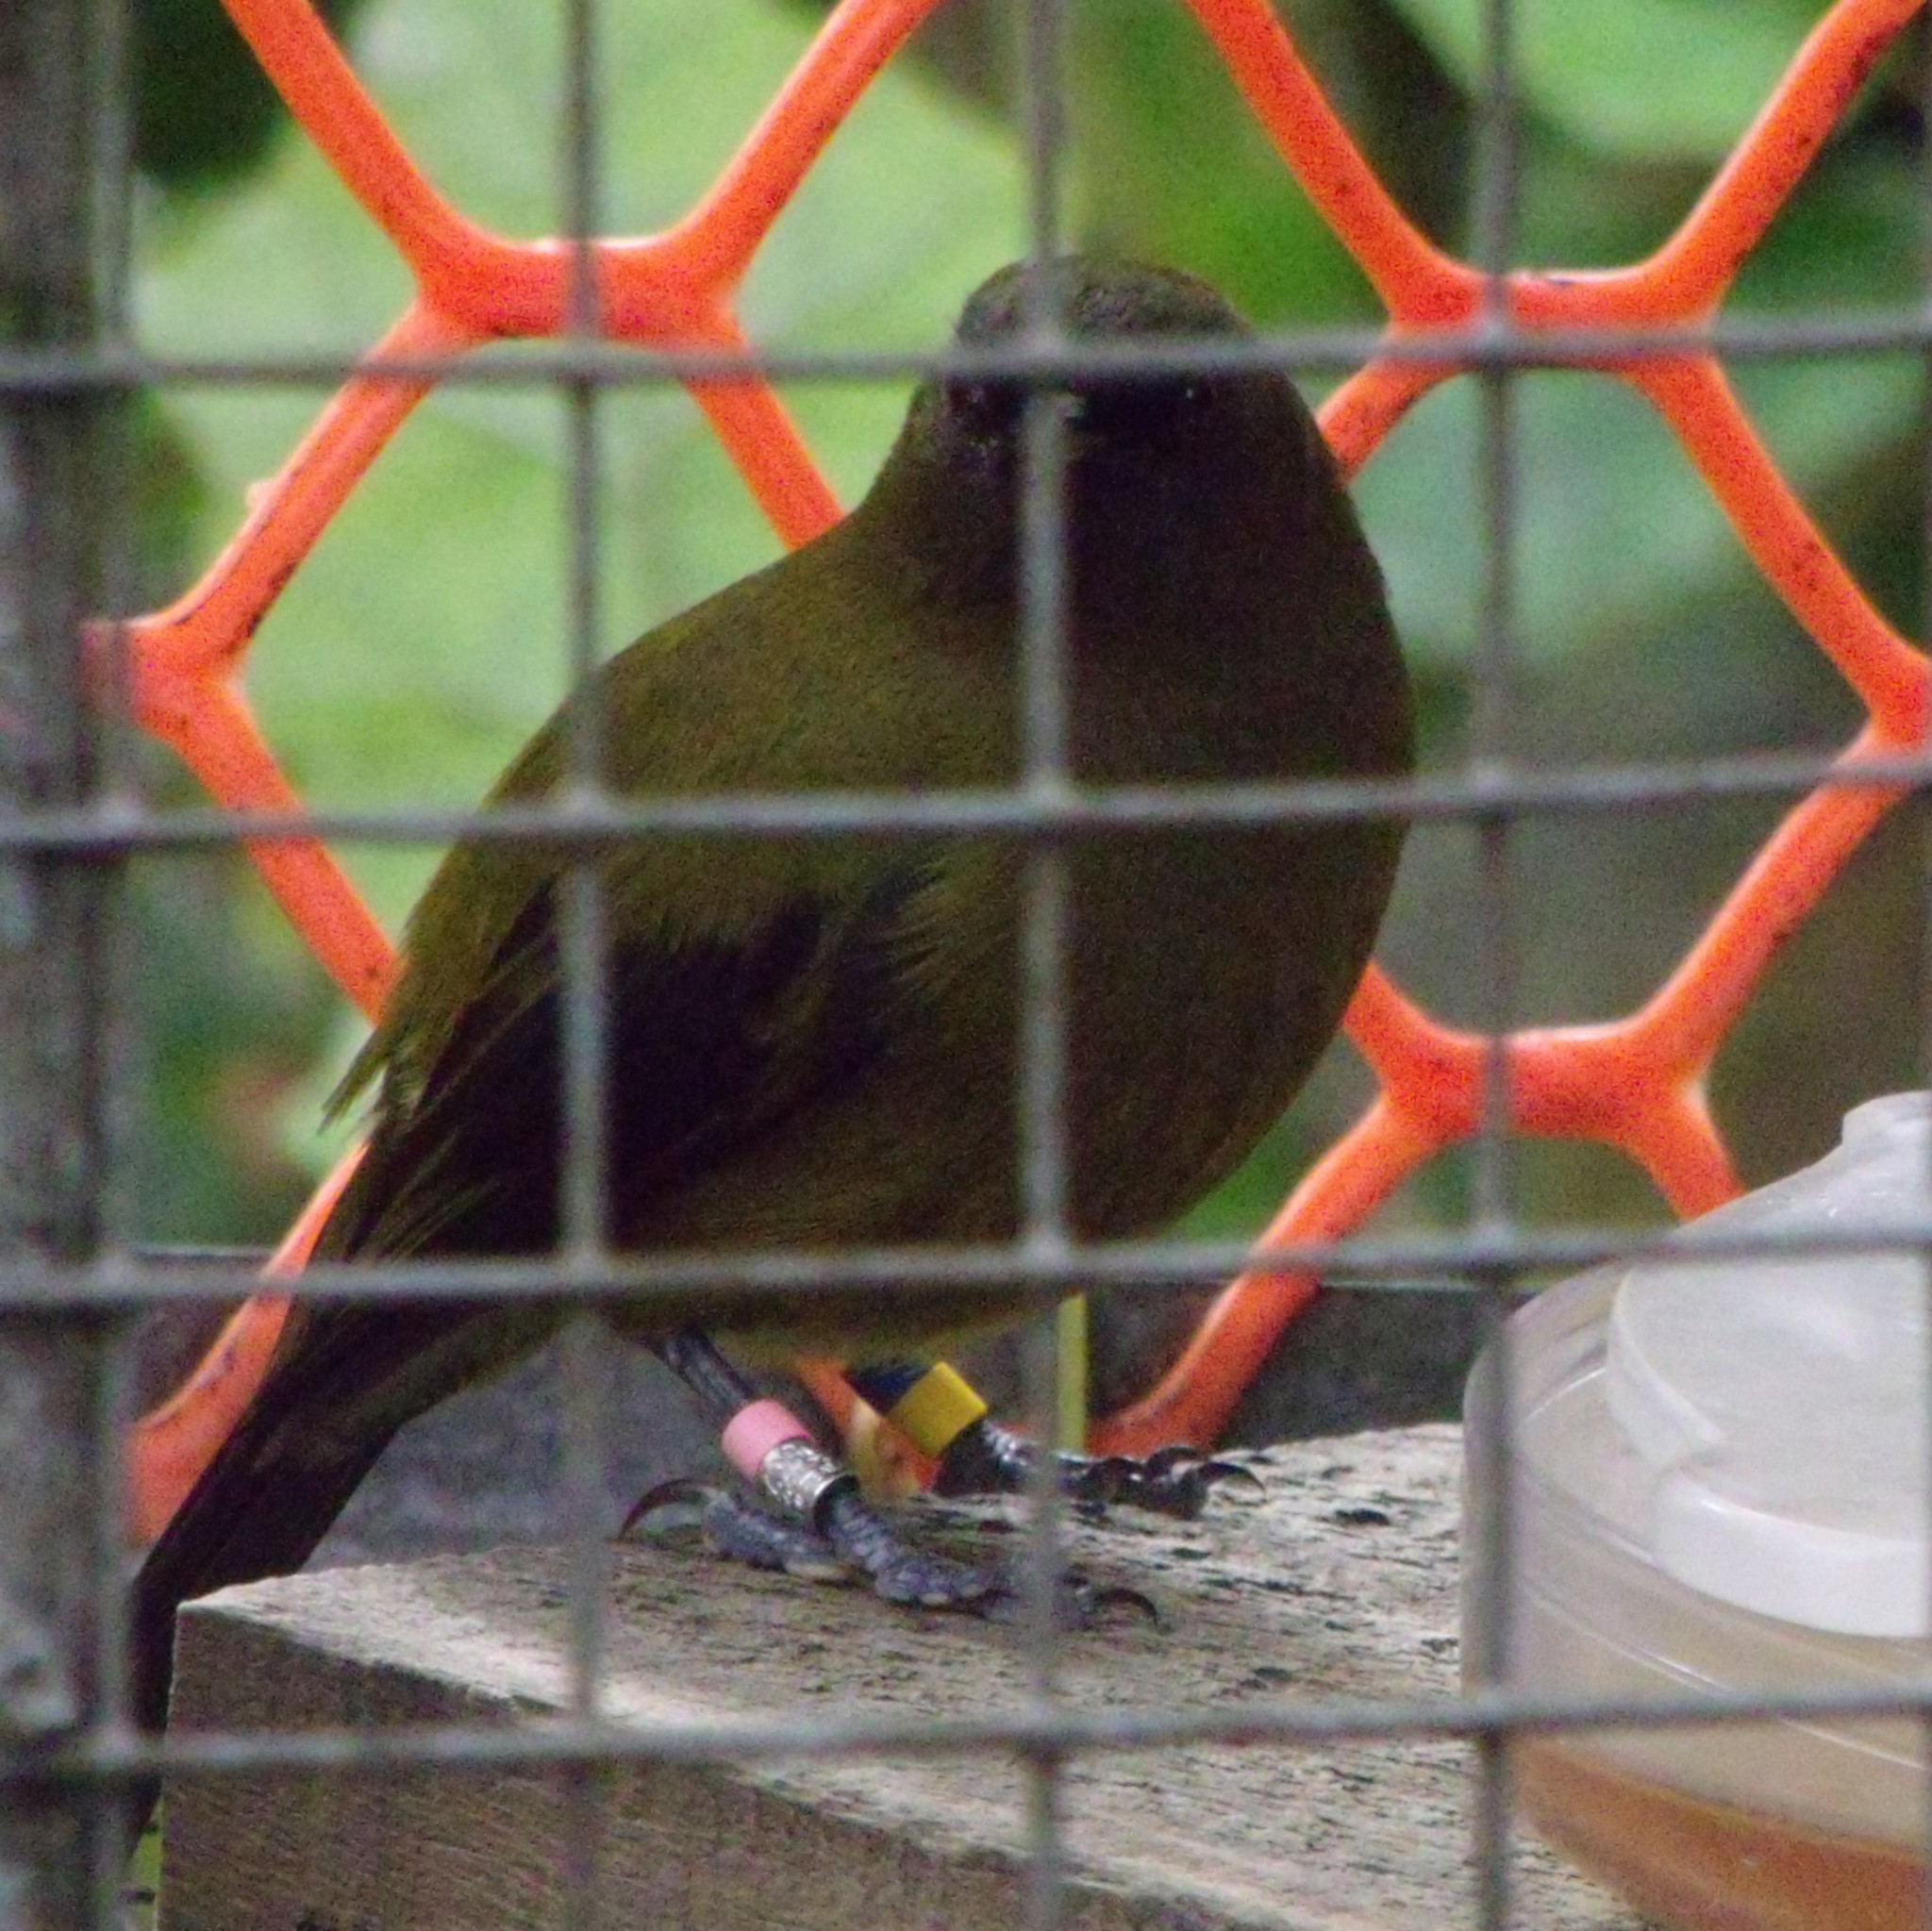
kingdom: Animalia
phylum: Chordata
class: Aves
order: Passeriformes
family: Meliphagidae
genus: Anthornis
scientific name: Anthornis melanura
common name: New zealand bellbird
